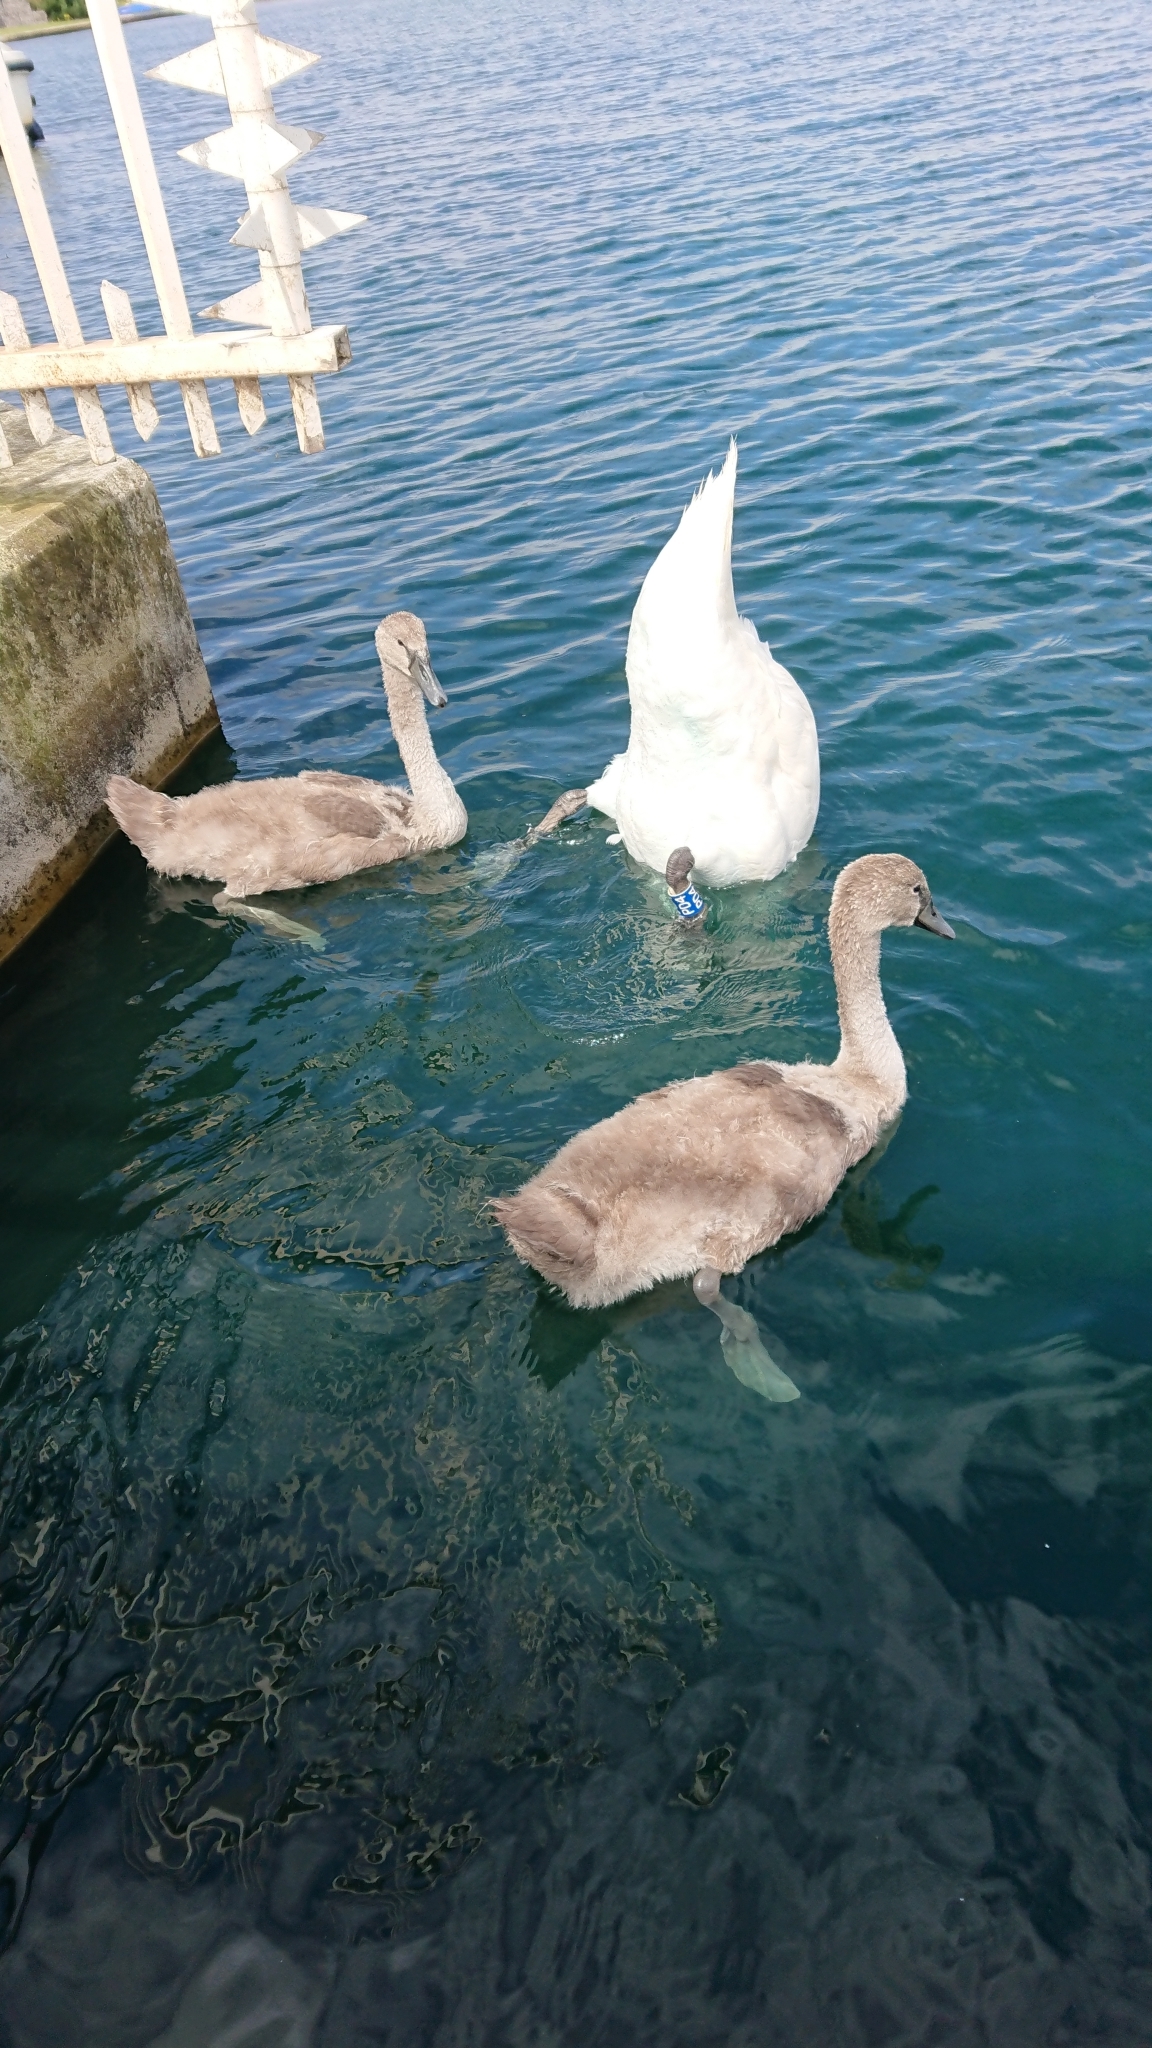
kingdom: Animalia
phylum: Chordata
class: Aves
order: Anseriformes
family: Anatidae
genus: Cygnus
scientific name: Cygnus olor
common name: Mute swan
